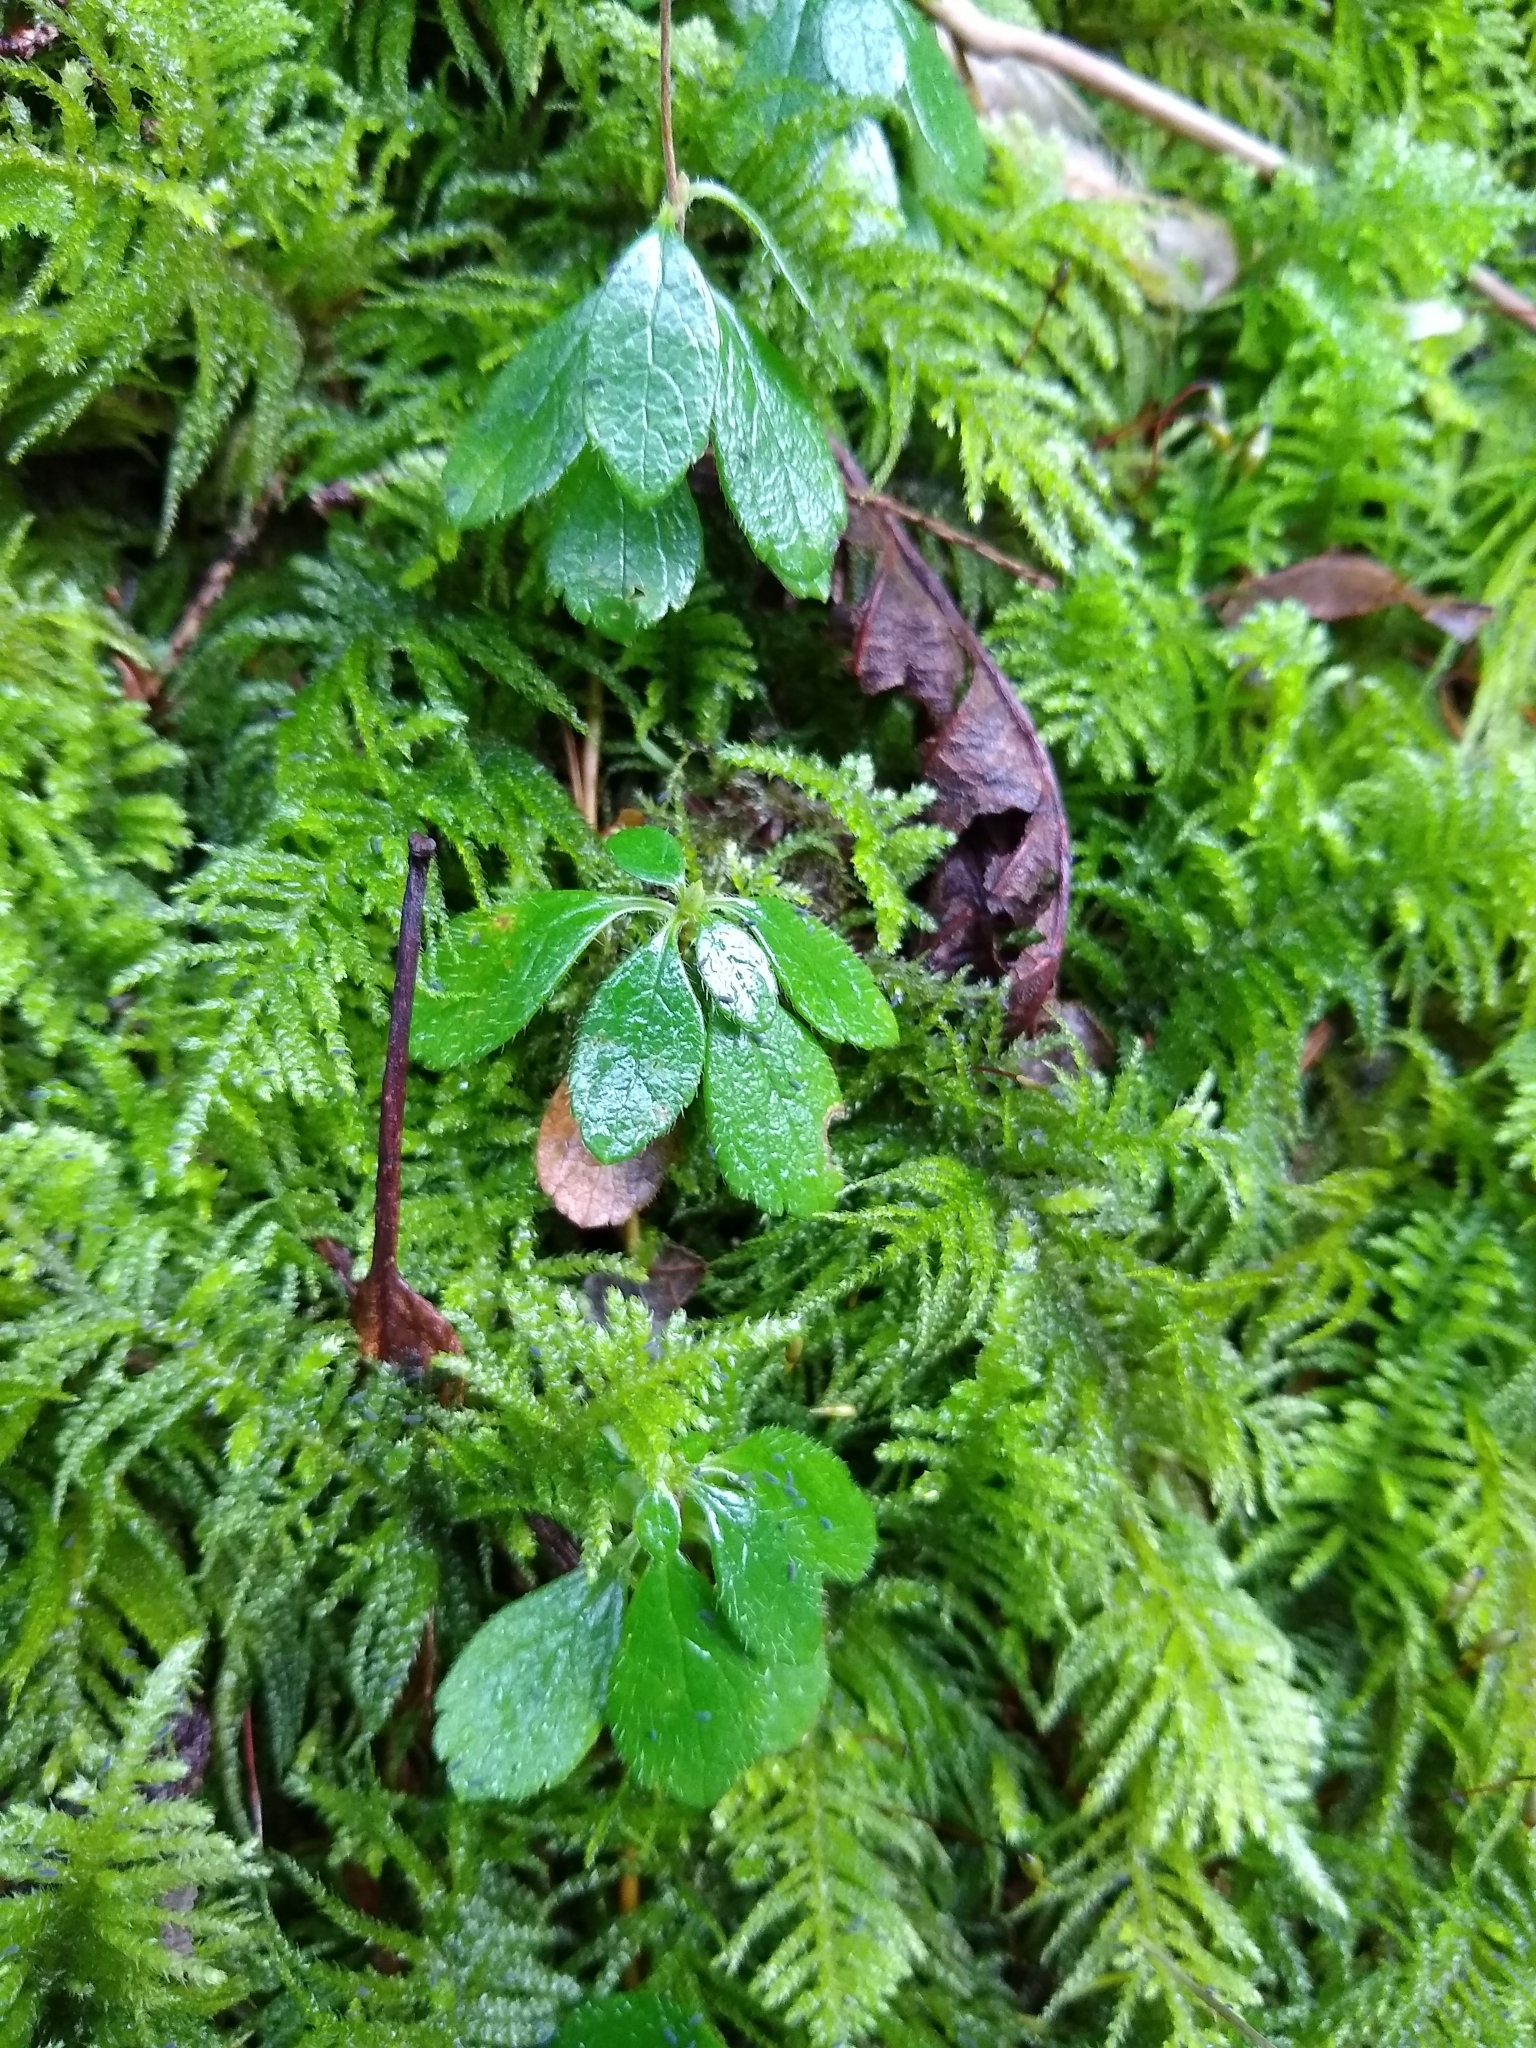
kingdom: Plantae
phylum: Tracheophyta
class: Magnoliopsida
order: Dipsacales
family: Caprifoliaceae
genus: Linnaea
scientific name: Linnaea borealis
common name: Twinflower
